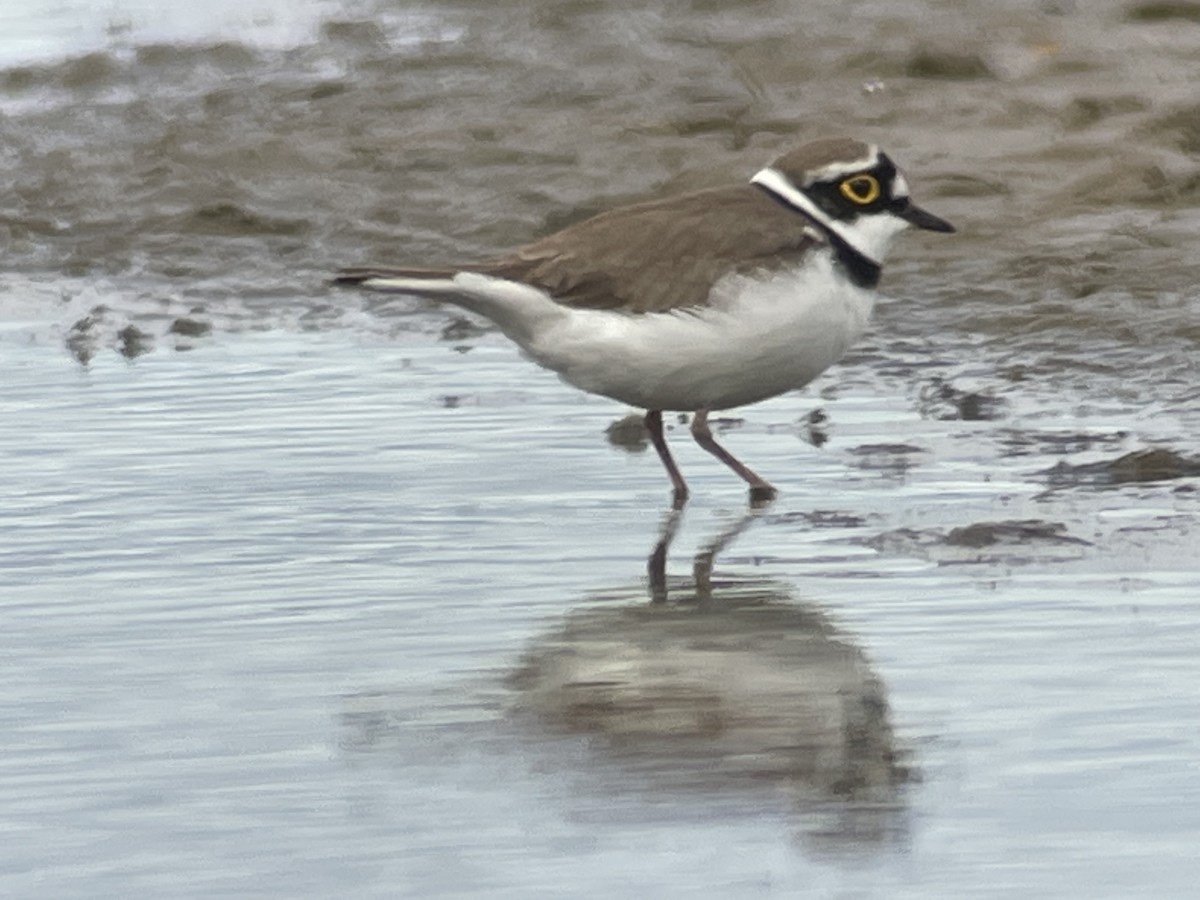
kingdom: Animalia
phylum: Chordata
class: Aves
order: Charadriiformes
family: Charadriidae
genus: Charadrius
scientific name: Charadrius dubius
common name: Little ringed plover
